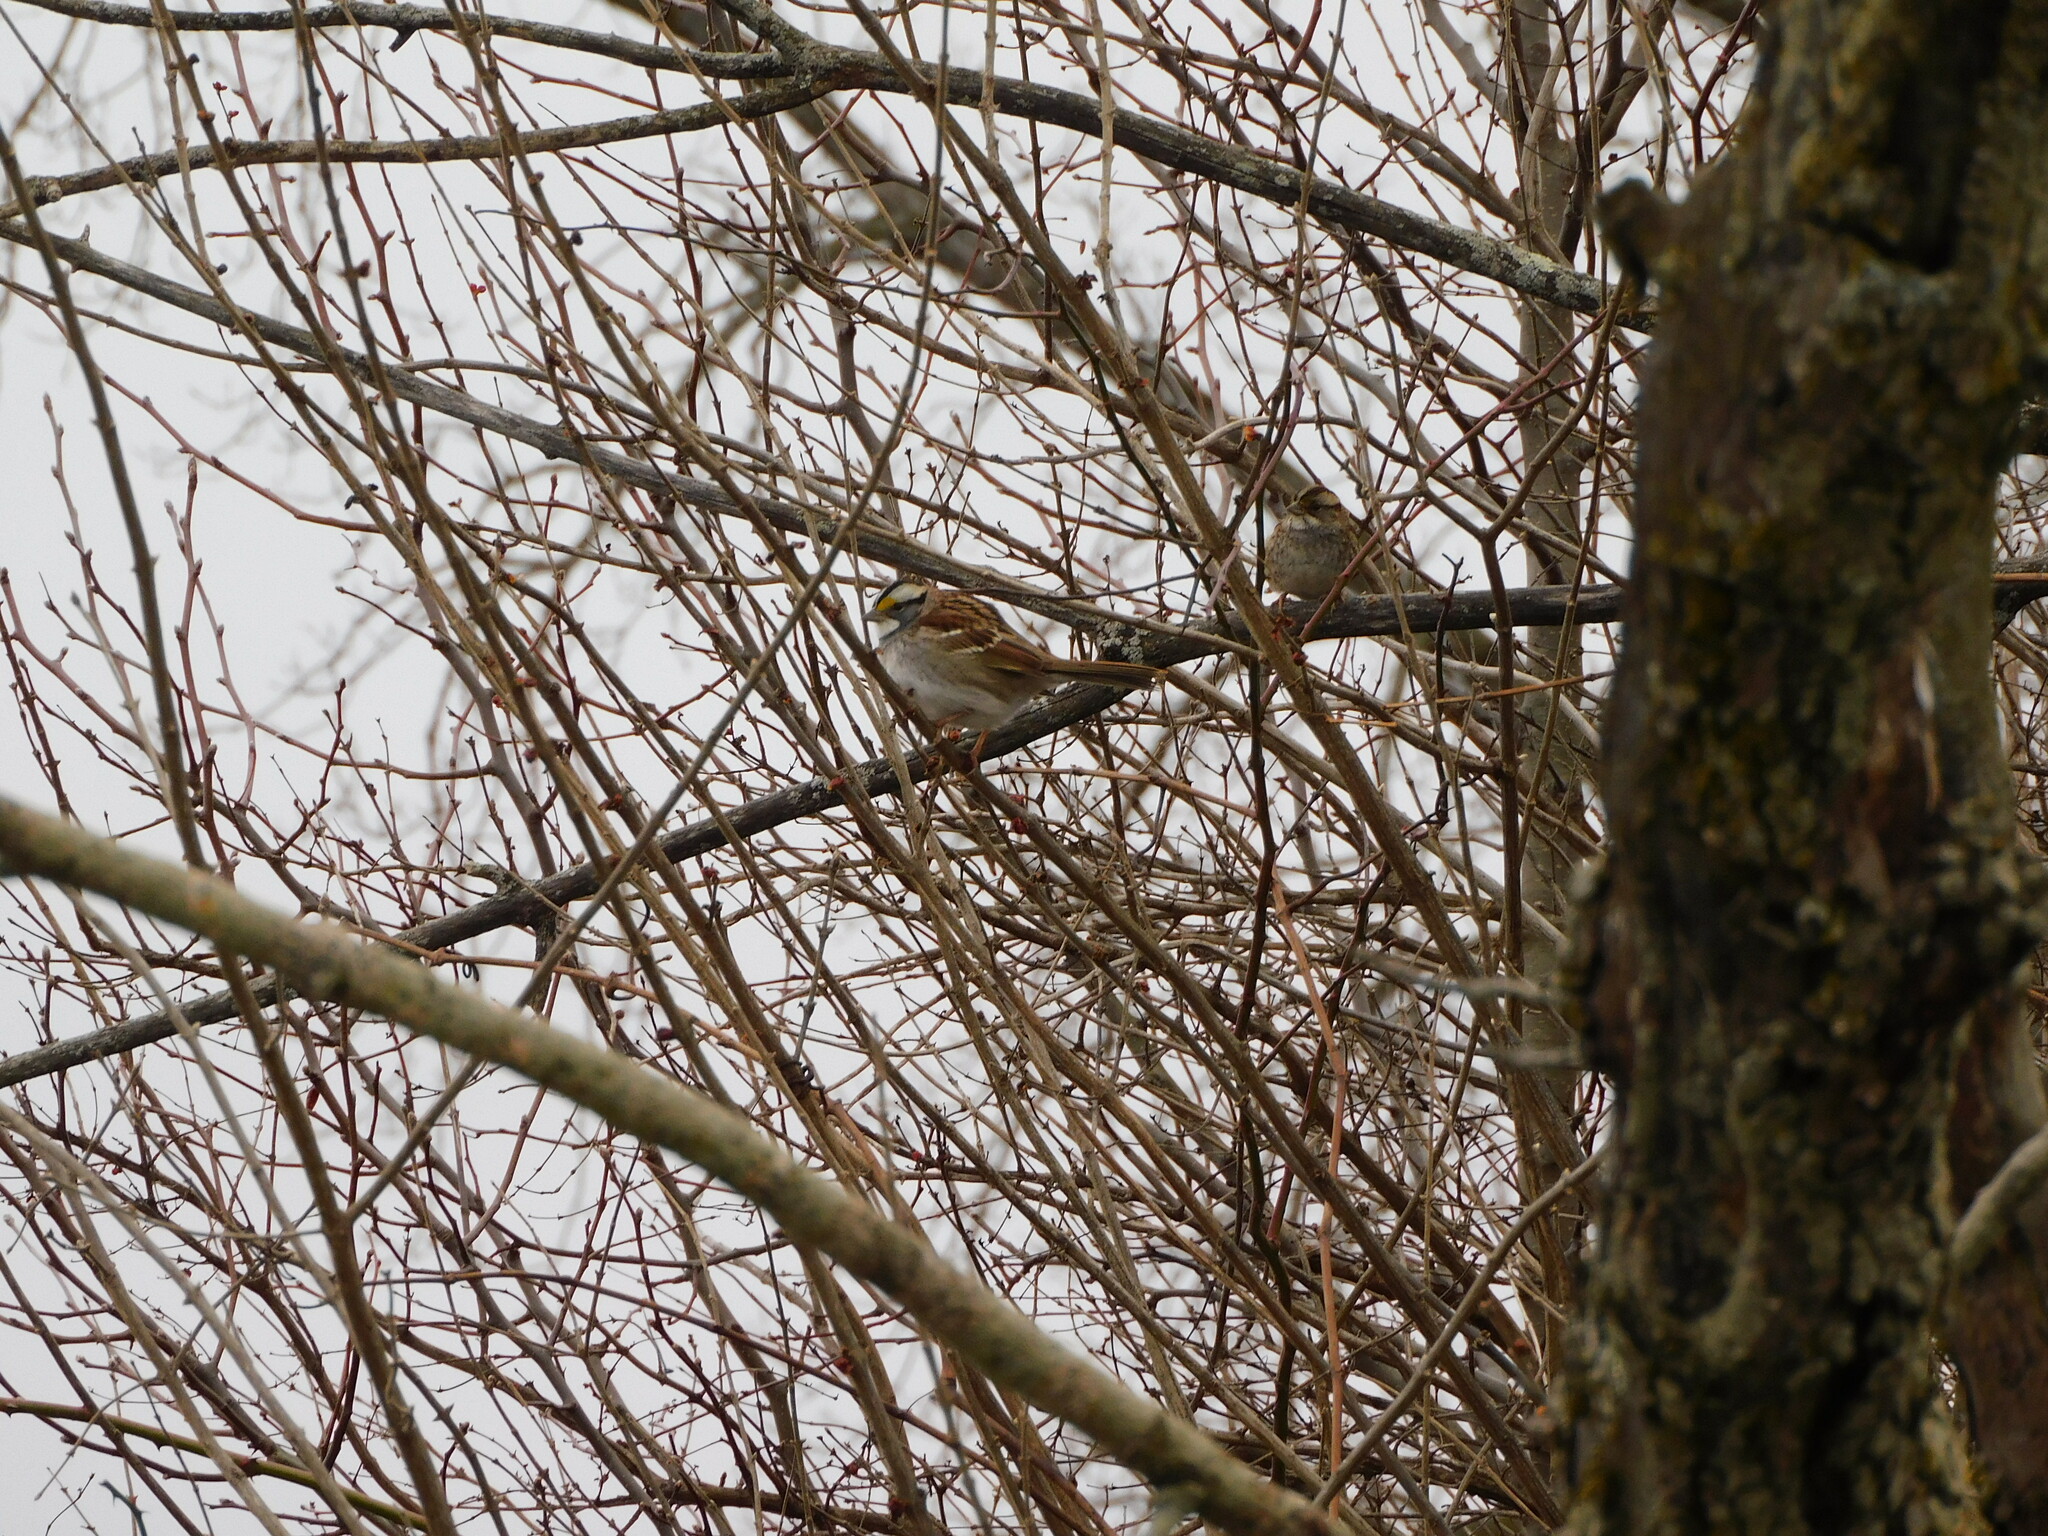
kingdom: Animalia
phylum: Chordata
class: Aves
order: Passeriformes
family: Passerellidae
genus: Zonotrichia
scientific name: Zonotrichia albicollis
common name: White-throated sparrow
